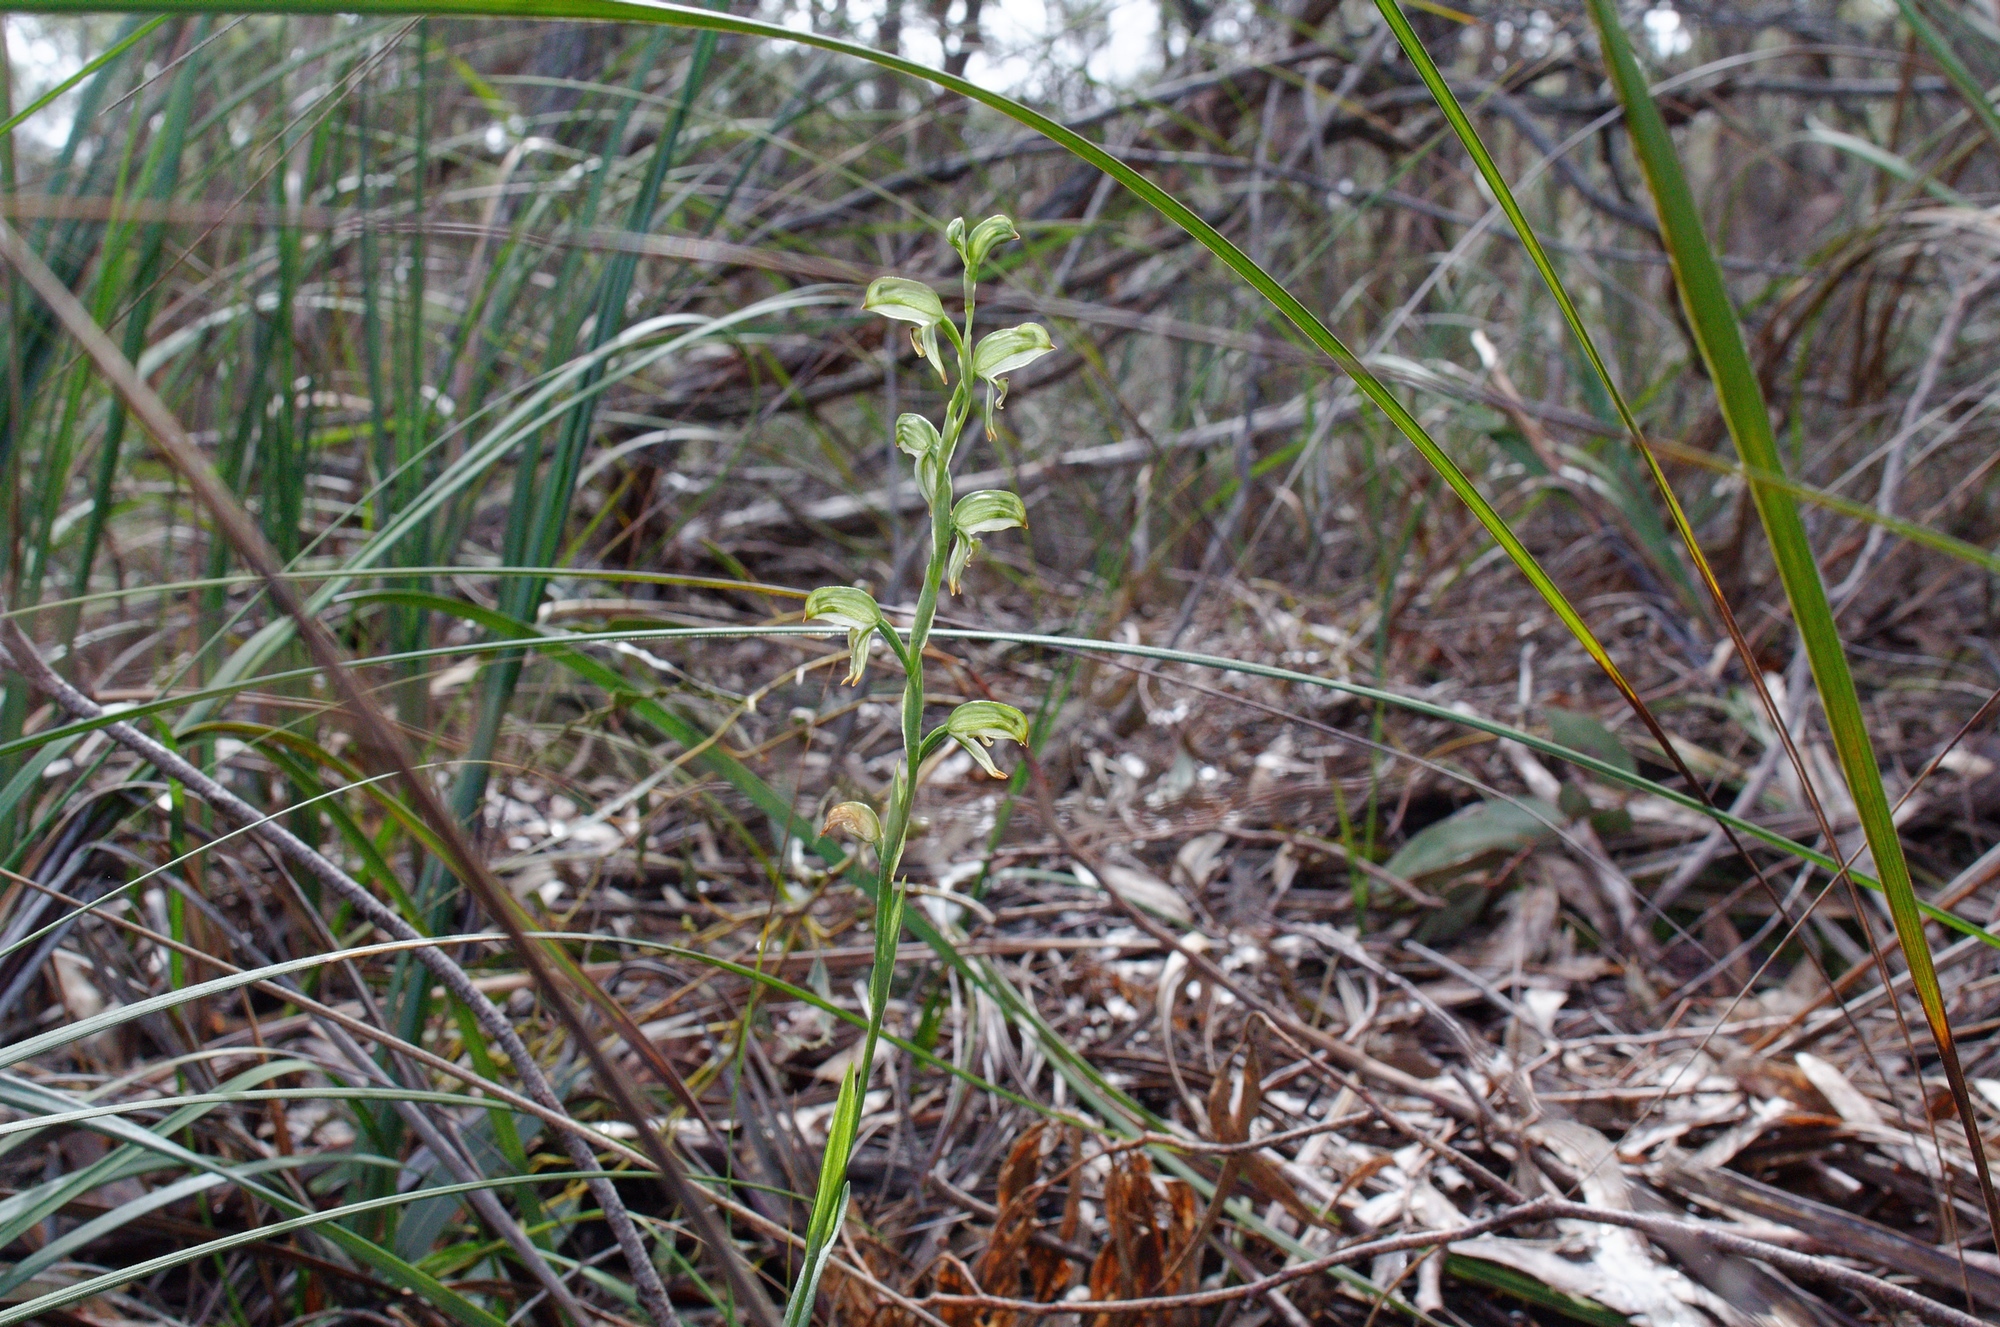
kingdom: Plantae
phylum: Tracheophyta
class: Liliopsida
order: Asparagales
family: Orchidaceae
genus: Pterostylis
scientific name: Pterostylis melagramma
